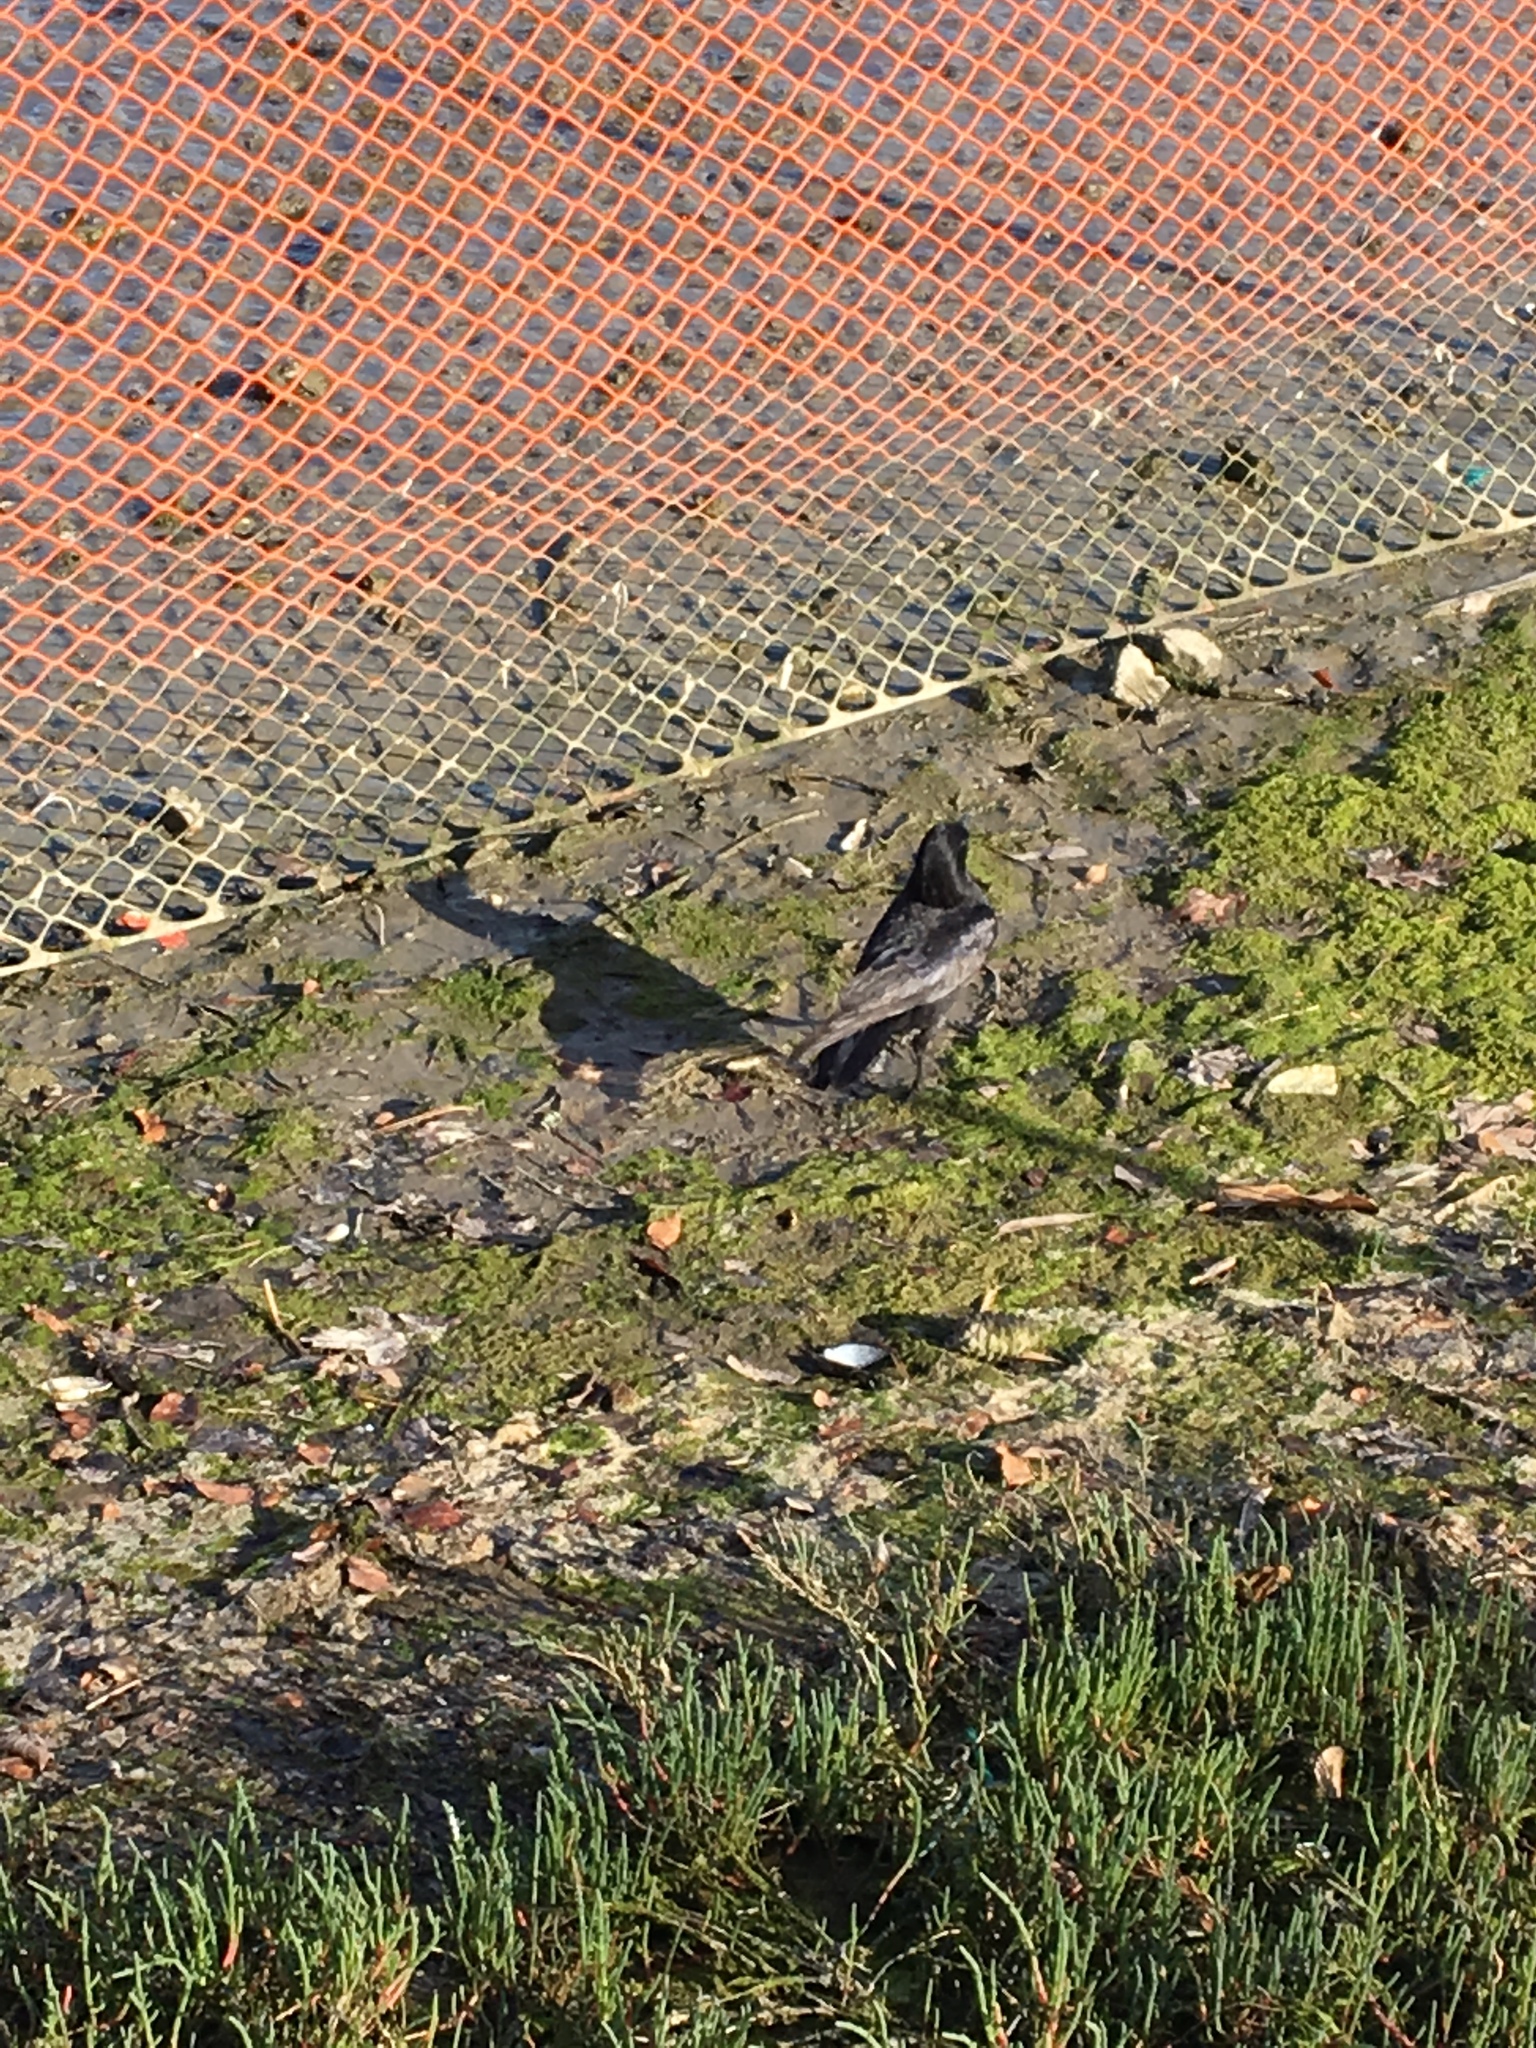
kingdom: Animalia
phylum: Chordata
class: Aves
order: Passeriformes
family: Corvidae
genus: Corvus
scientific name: Corvus brachyrhynchos
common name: American crow
